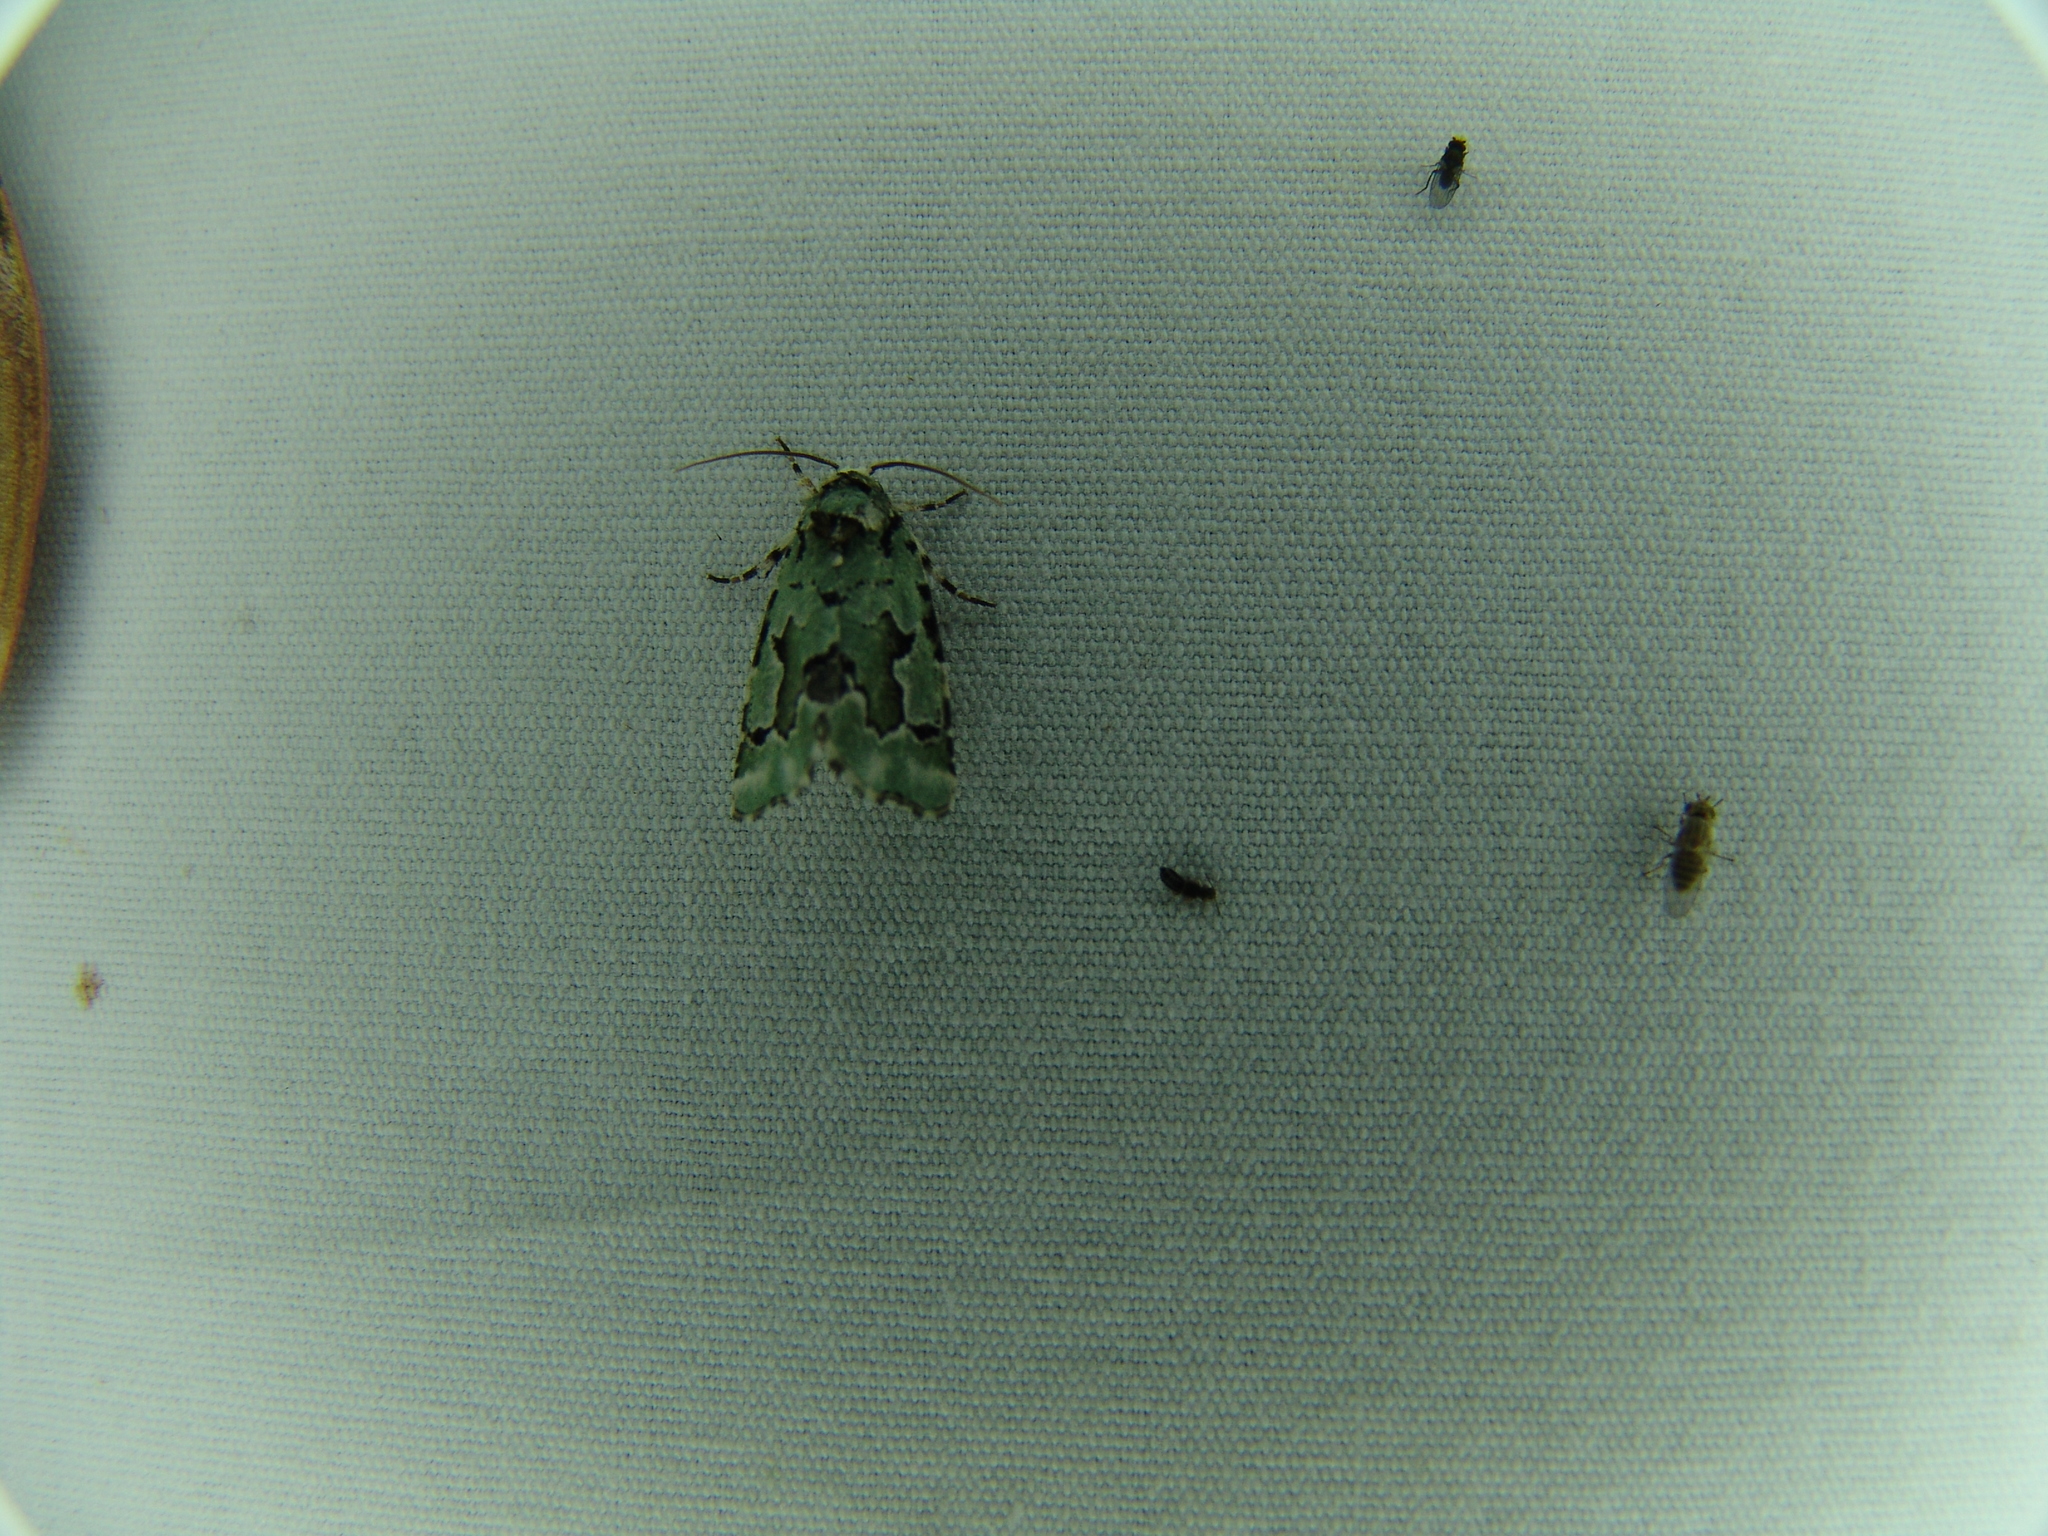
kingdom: Animalia
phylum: Arthropoda
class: Insecta
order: Lepidoptera
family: Noctuidae
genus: Emarginea
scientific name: Emarginea percara
